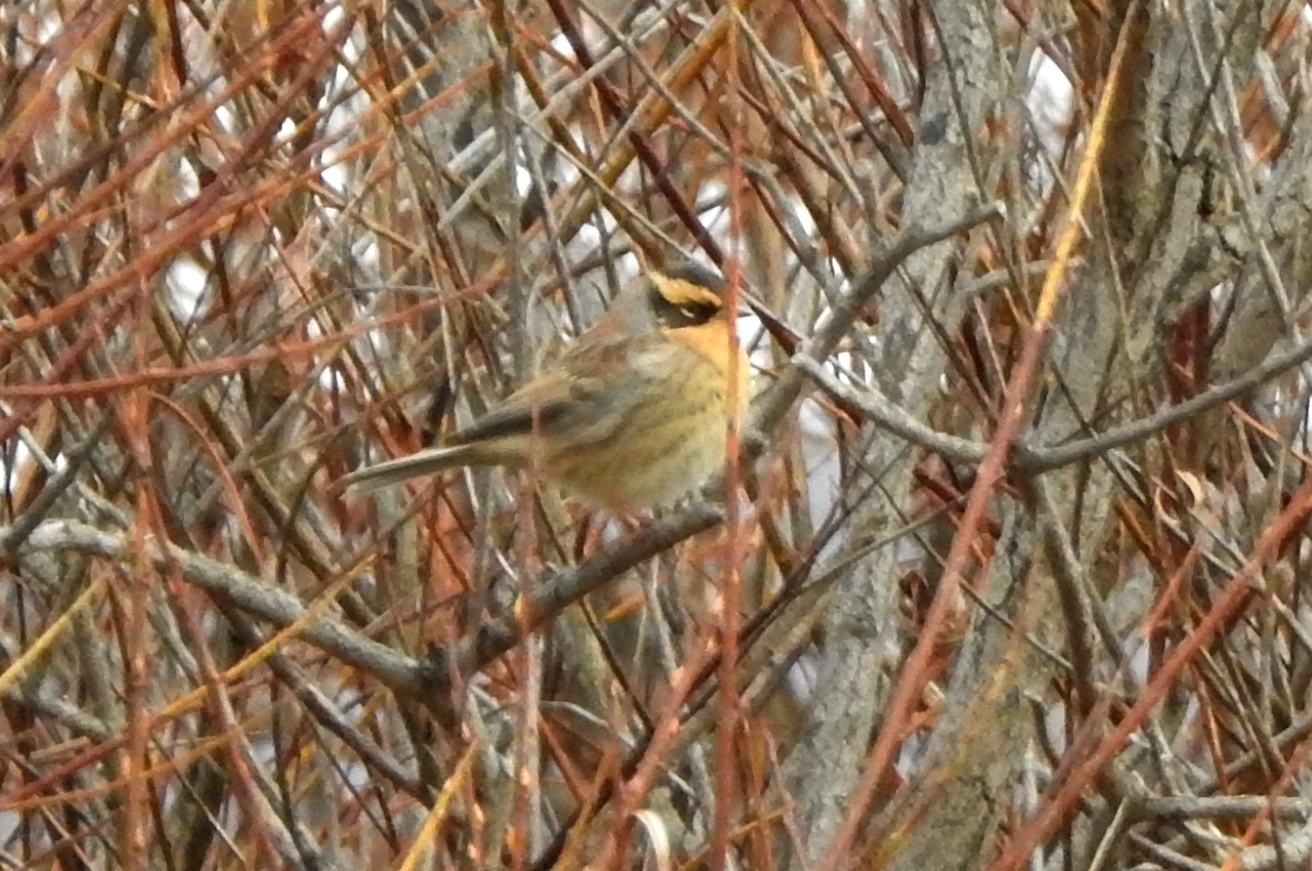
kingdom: Animalia
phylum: Chordata
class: Aves
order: Passeriformes
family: Prunellidae
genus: Prunella
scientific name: Prunella montanella
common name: Siberian accentor
